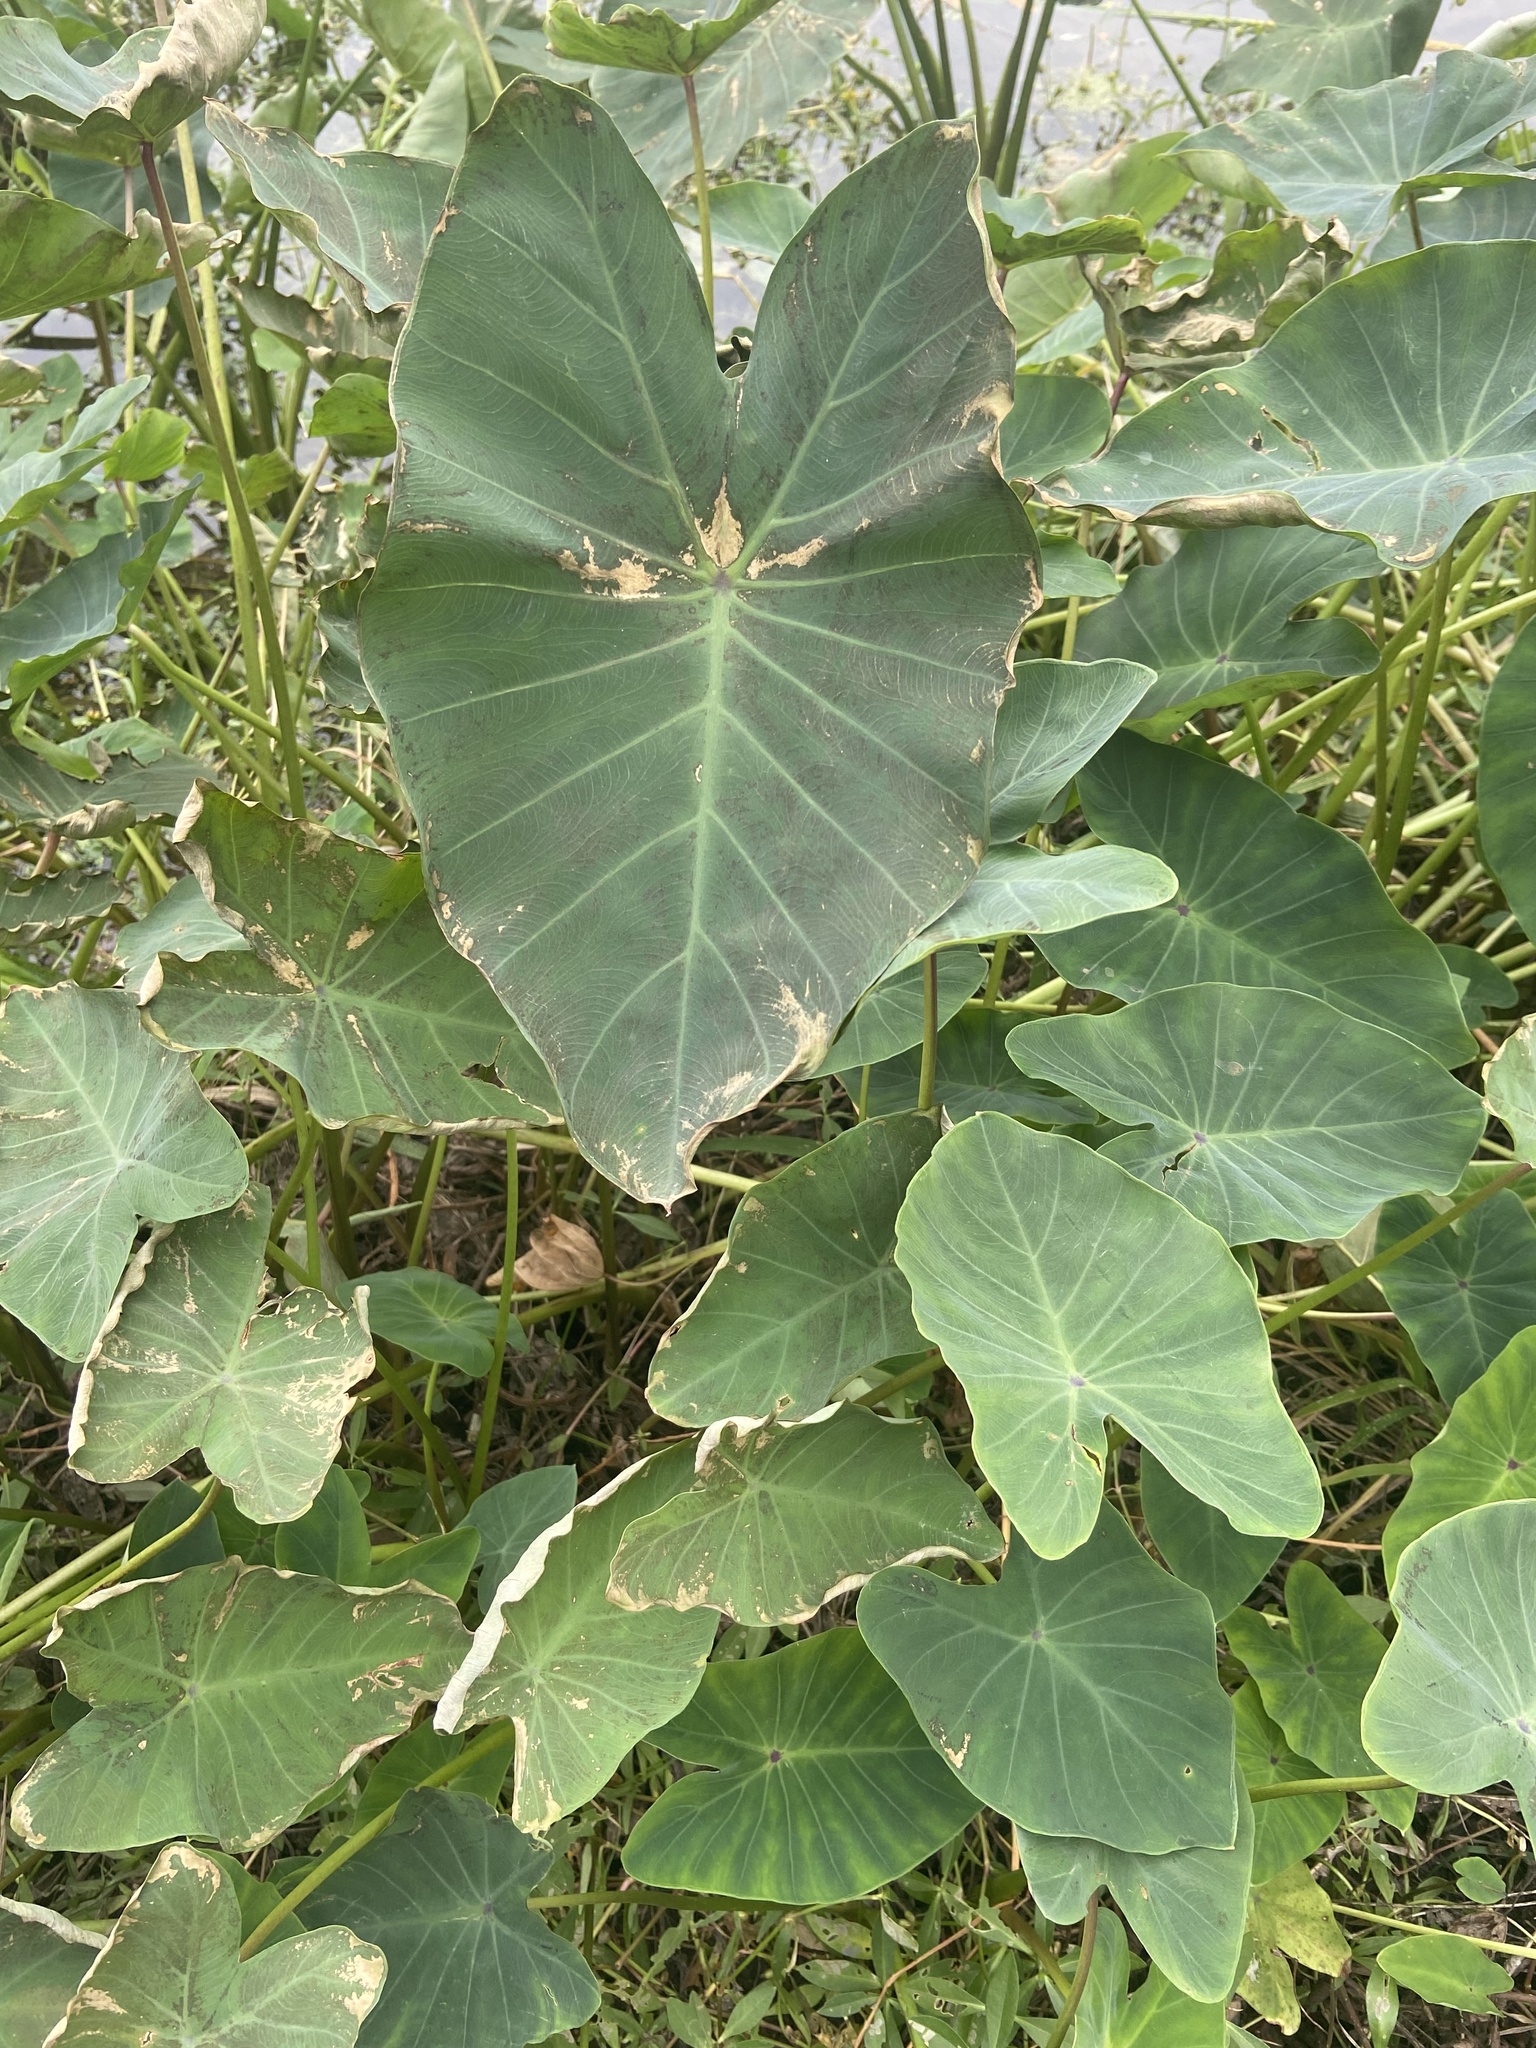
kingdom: Plantae
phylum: Tracheophyta
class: Liliopsida
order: Alismatales
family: Araceae
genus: Colocasia
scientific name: Colocasia esculenta
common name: Taro
